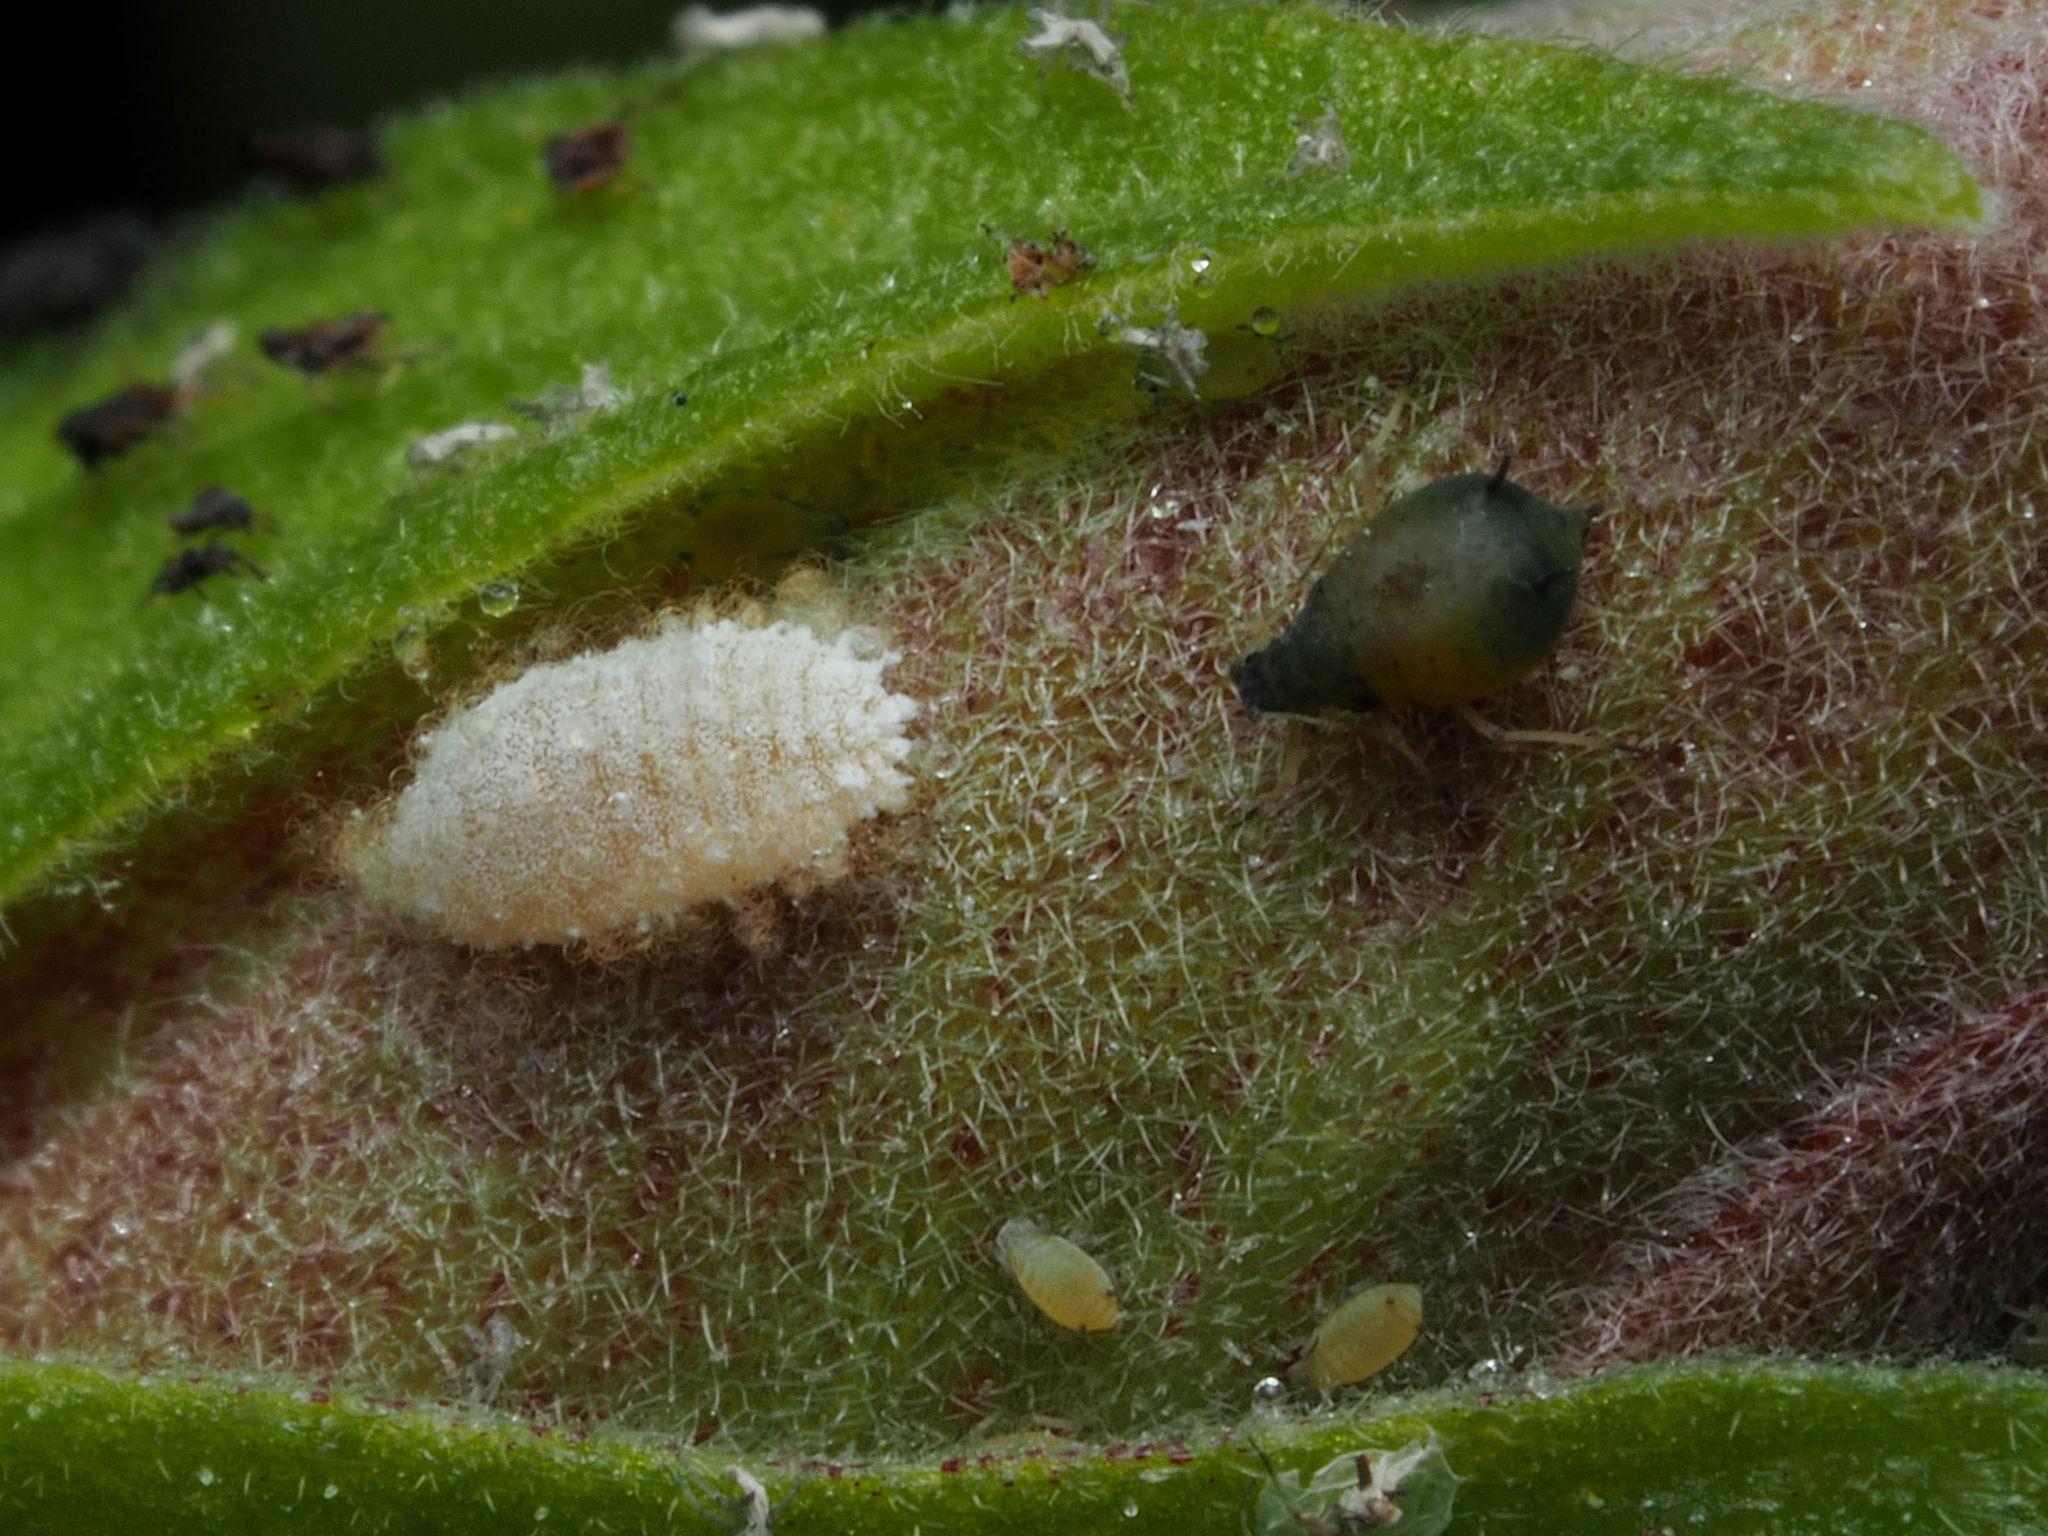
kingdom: Animalia
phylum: Arthropoda
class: Insecta
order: Hemiptera
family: Pseudococcidae
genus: Planococcus
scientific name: Planococcus citri
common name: Citrus mealybug
